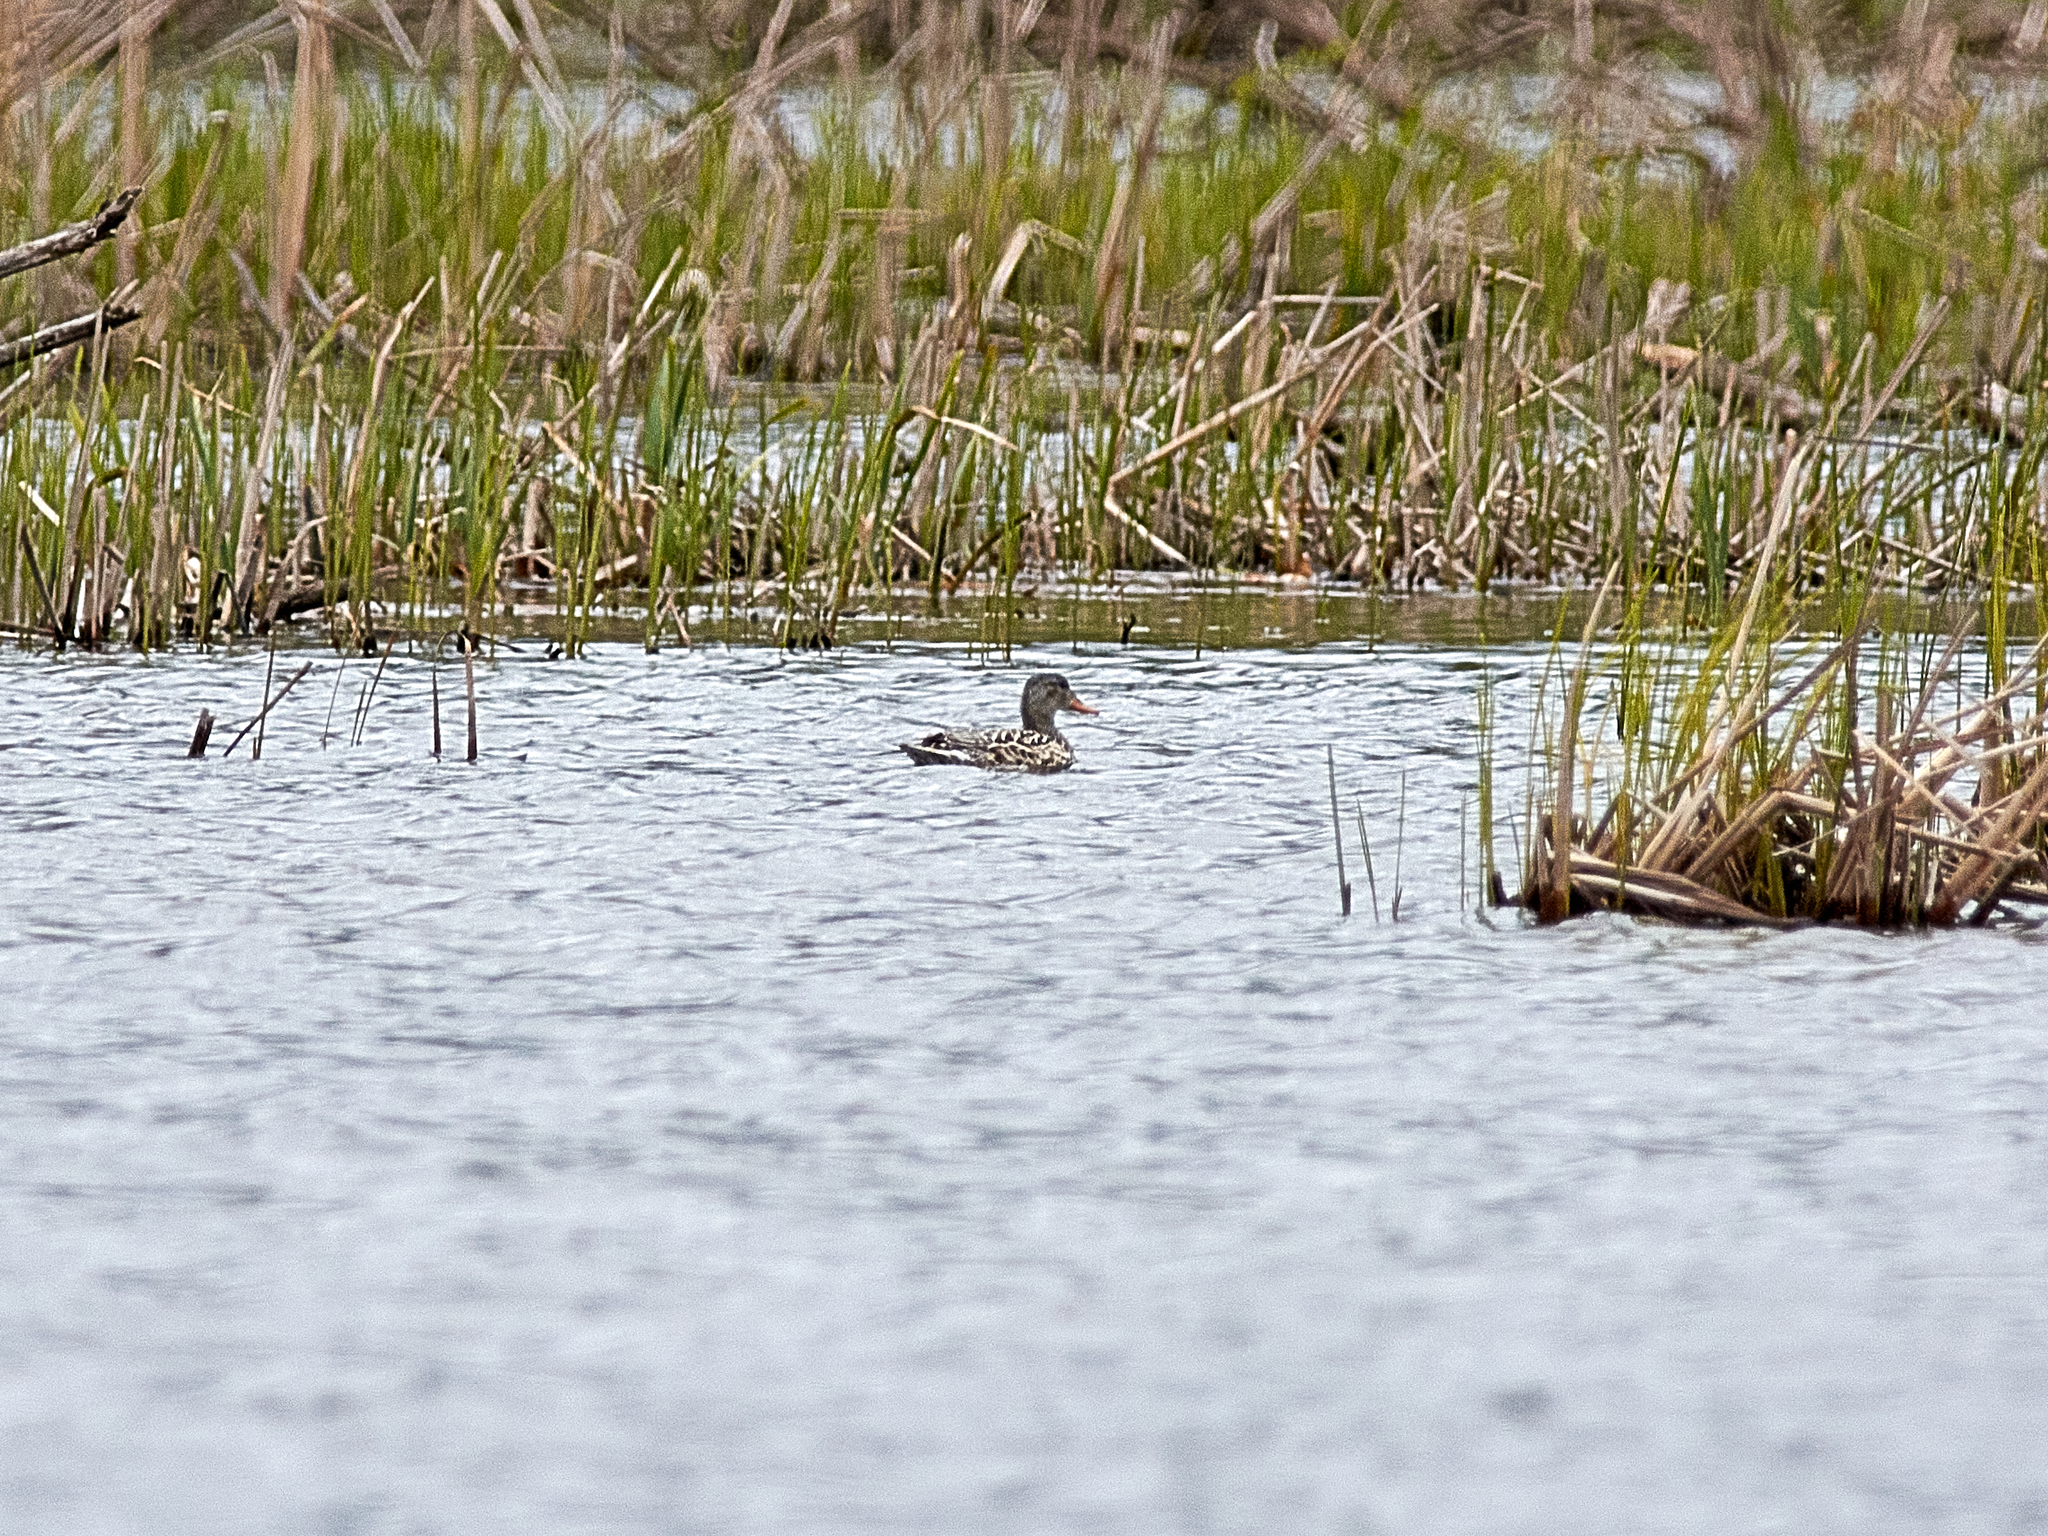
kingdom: Animalia
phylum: Chordata
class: Aves
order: Anseriformes
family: Anatidae
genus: Mareca
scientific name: Mareca strepera
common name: Gadwall
